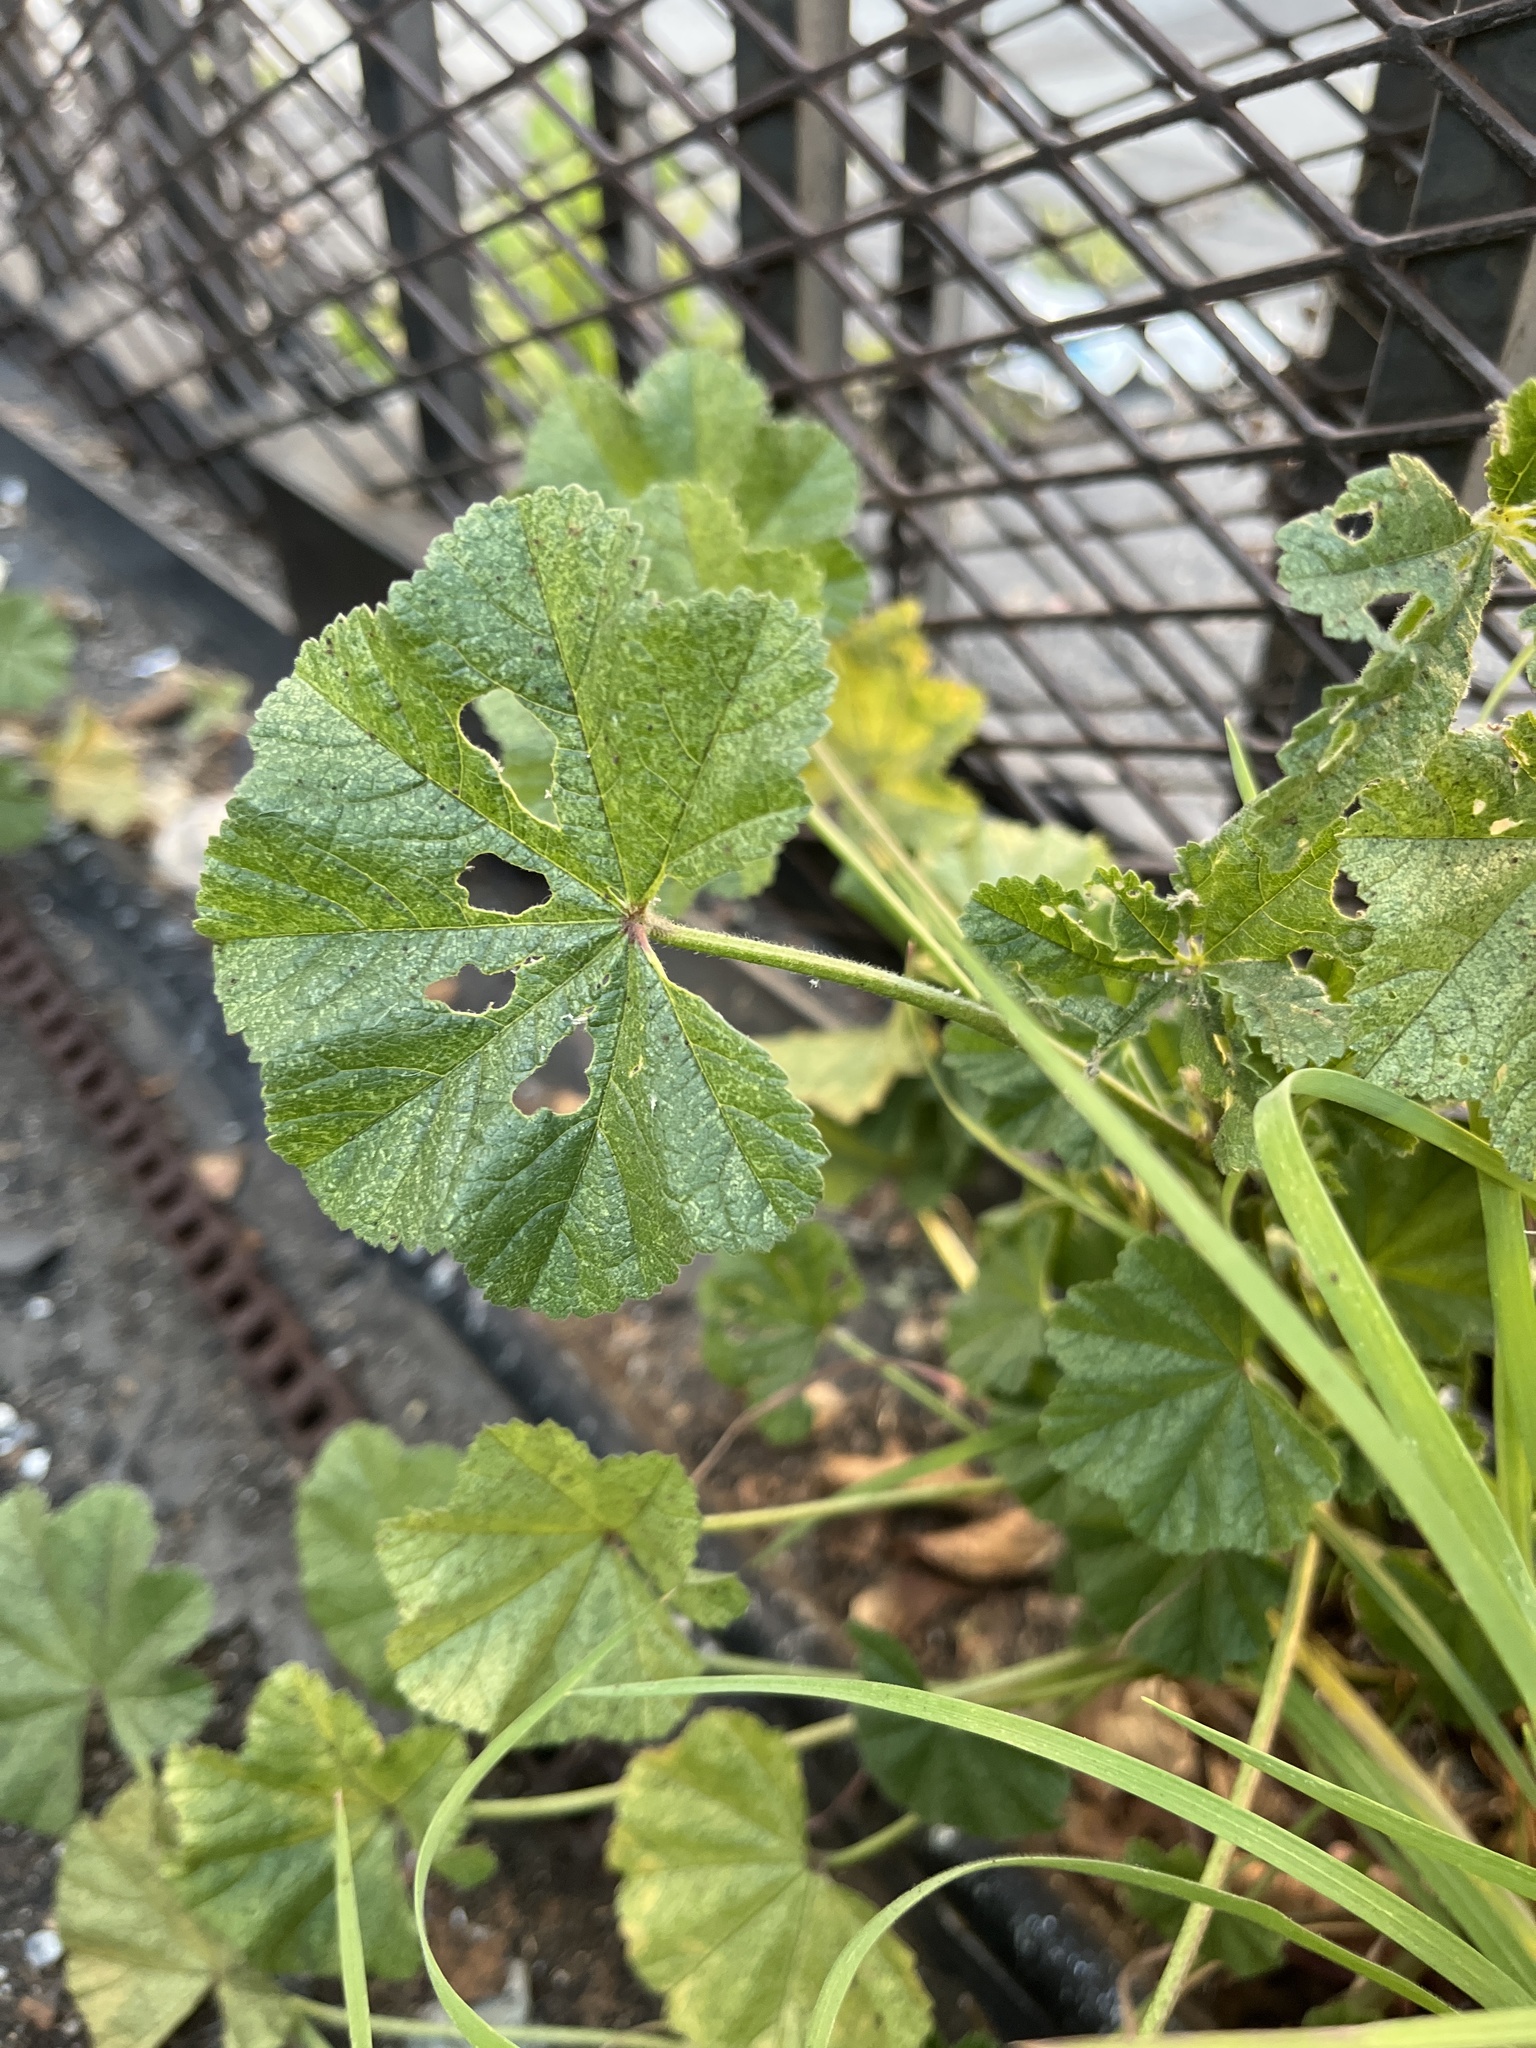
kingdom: Plantae
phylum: Tracheophyta
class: Magnoliopsida
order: Malvales
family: Malvaceae
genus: Malva
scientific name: Malva
